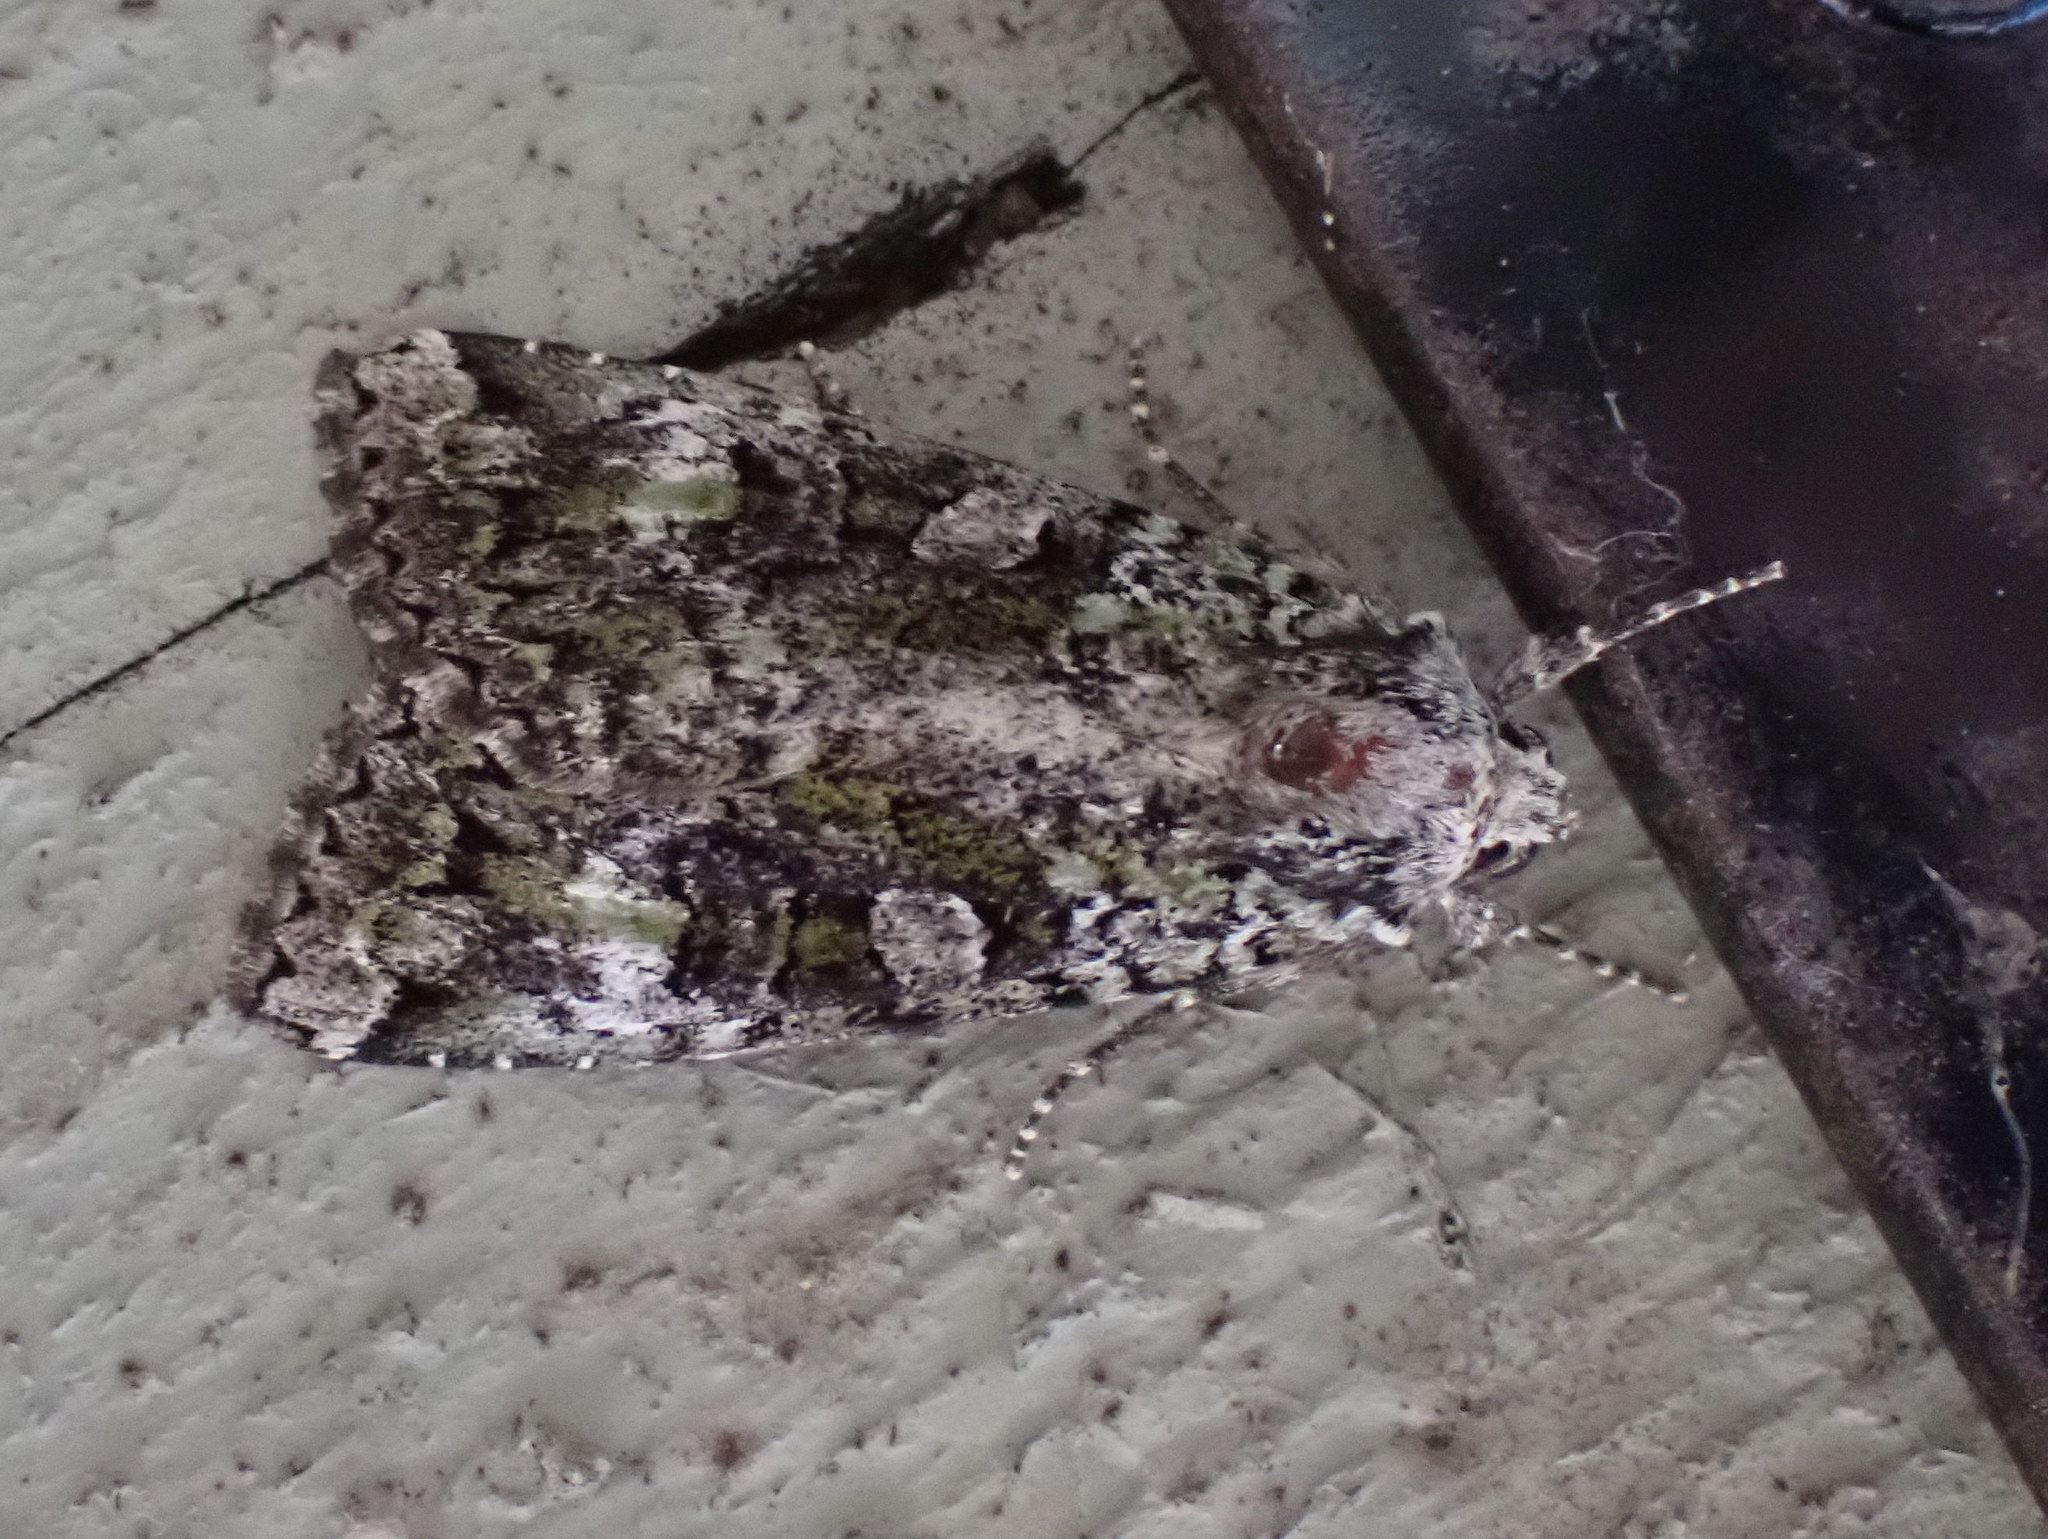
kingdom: Animalia
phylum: Arthropoda
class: Insecta
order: Lepidoptera
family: Noctuidae
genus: Anaplectoides
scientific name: Anaplectoides prasina
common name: Green arches
